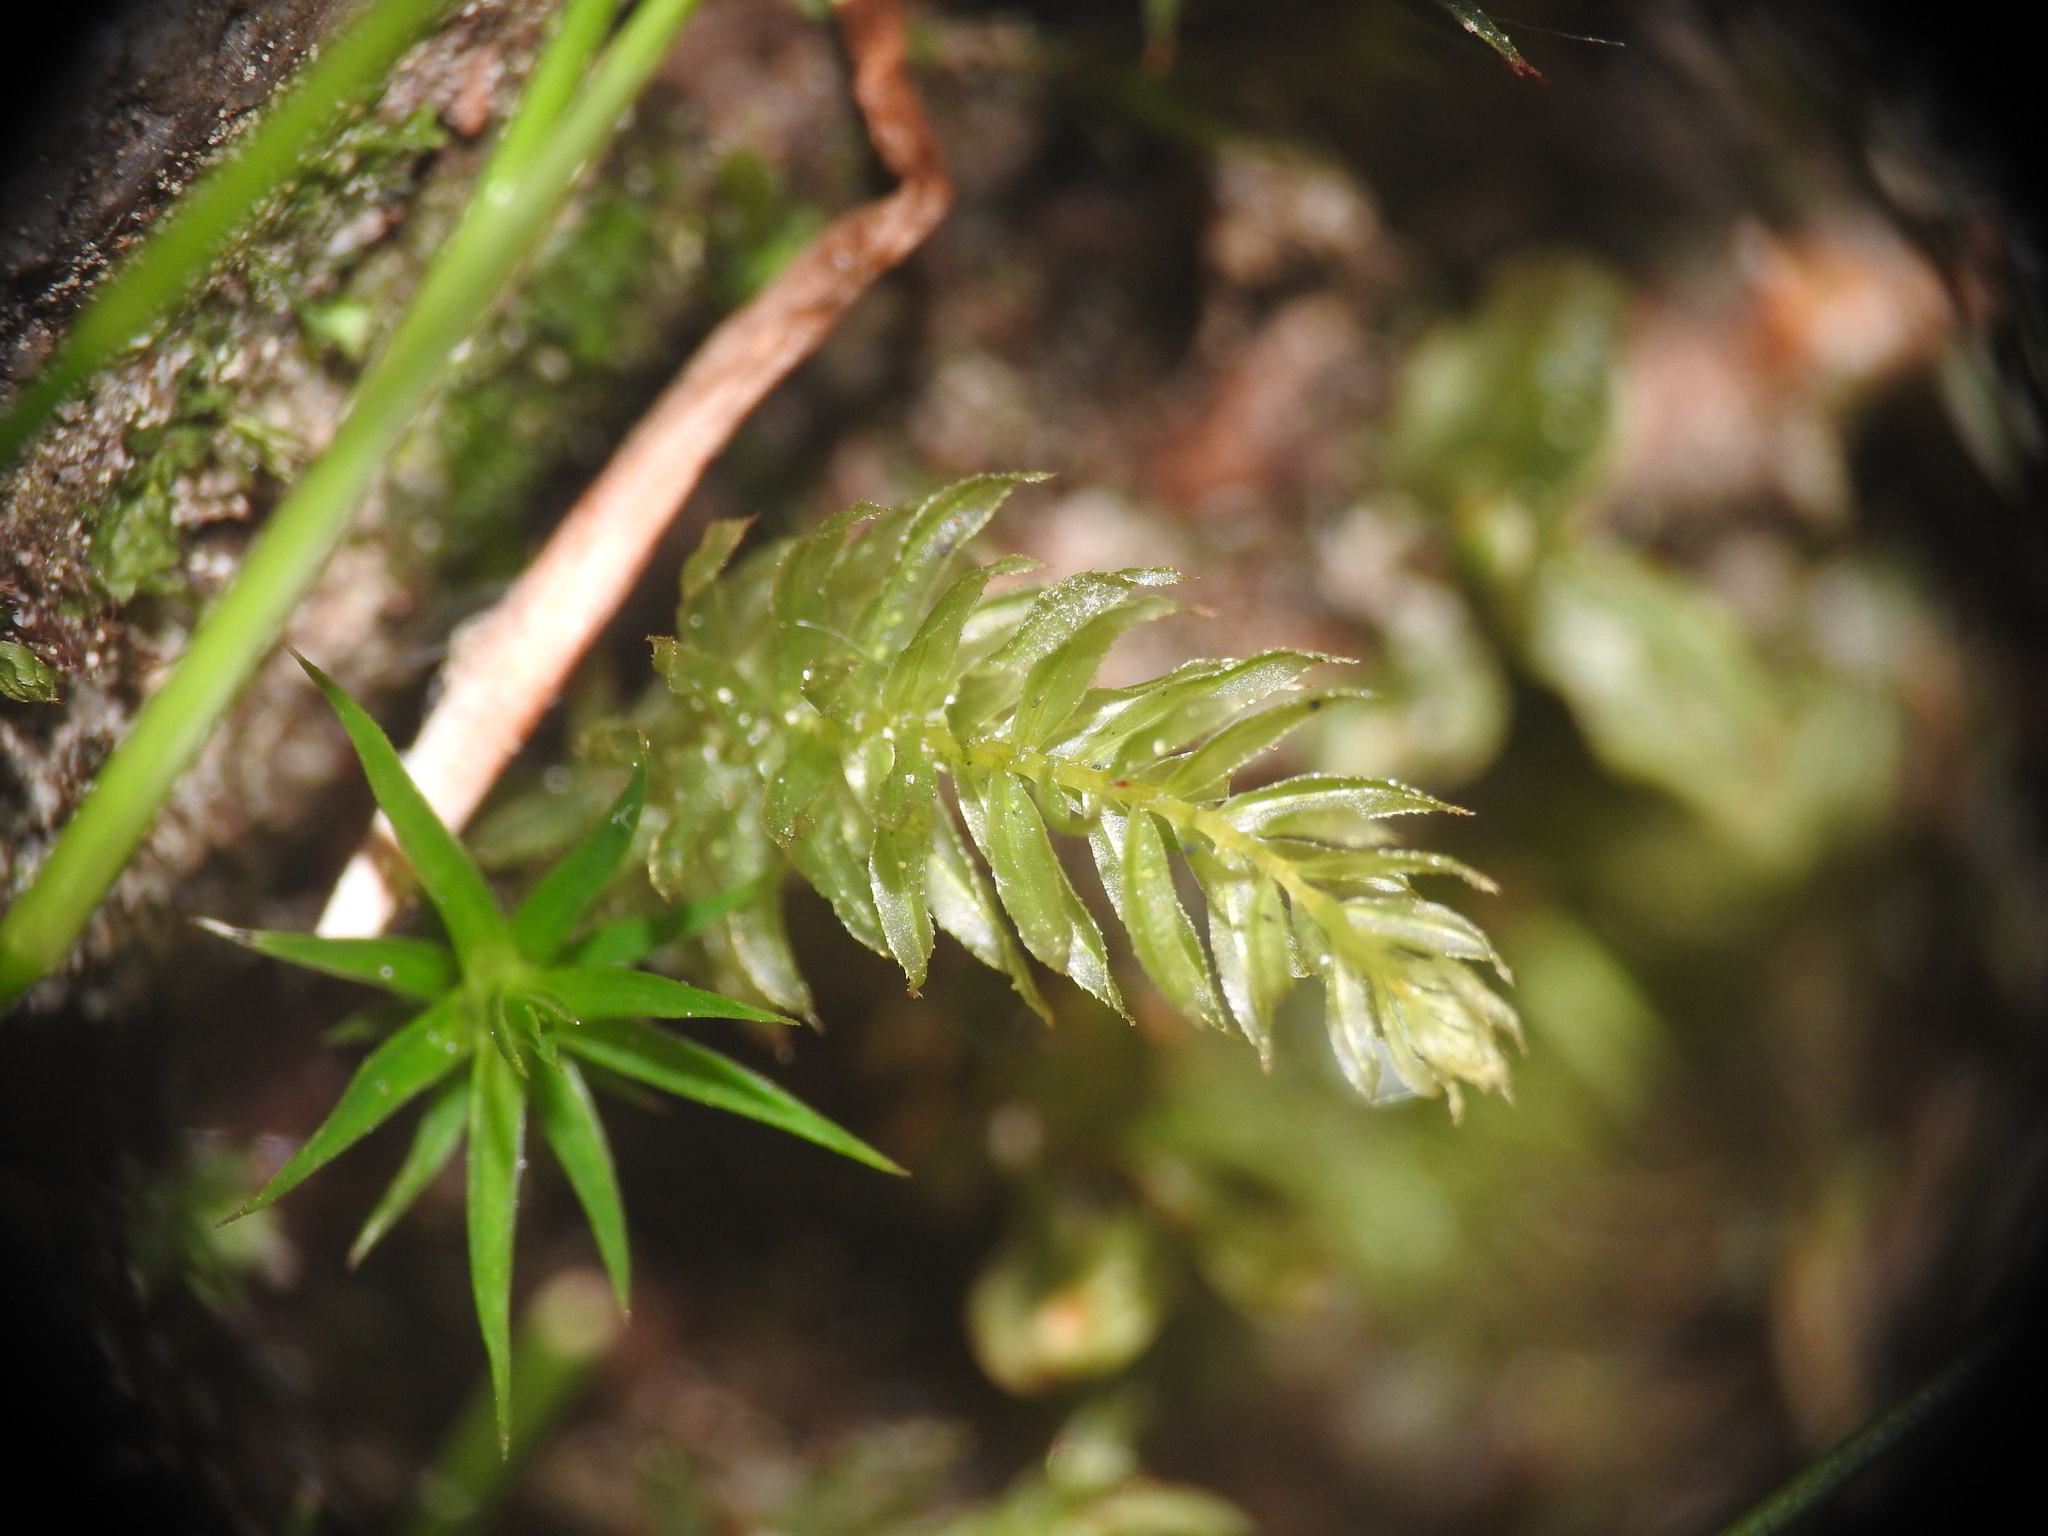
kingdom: Plantae
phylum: Bryophyta
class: Bryopsida
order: Bryales
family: Mniaceae
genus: Mnium
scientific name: Mnium hornum
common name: Swan's-neck leafy moss
